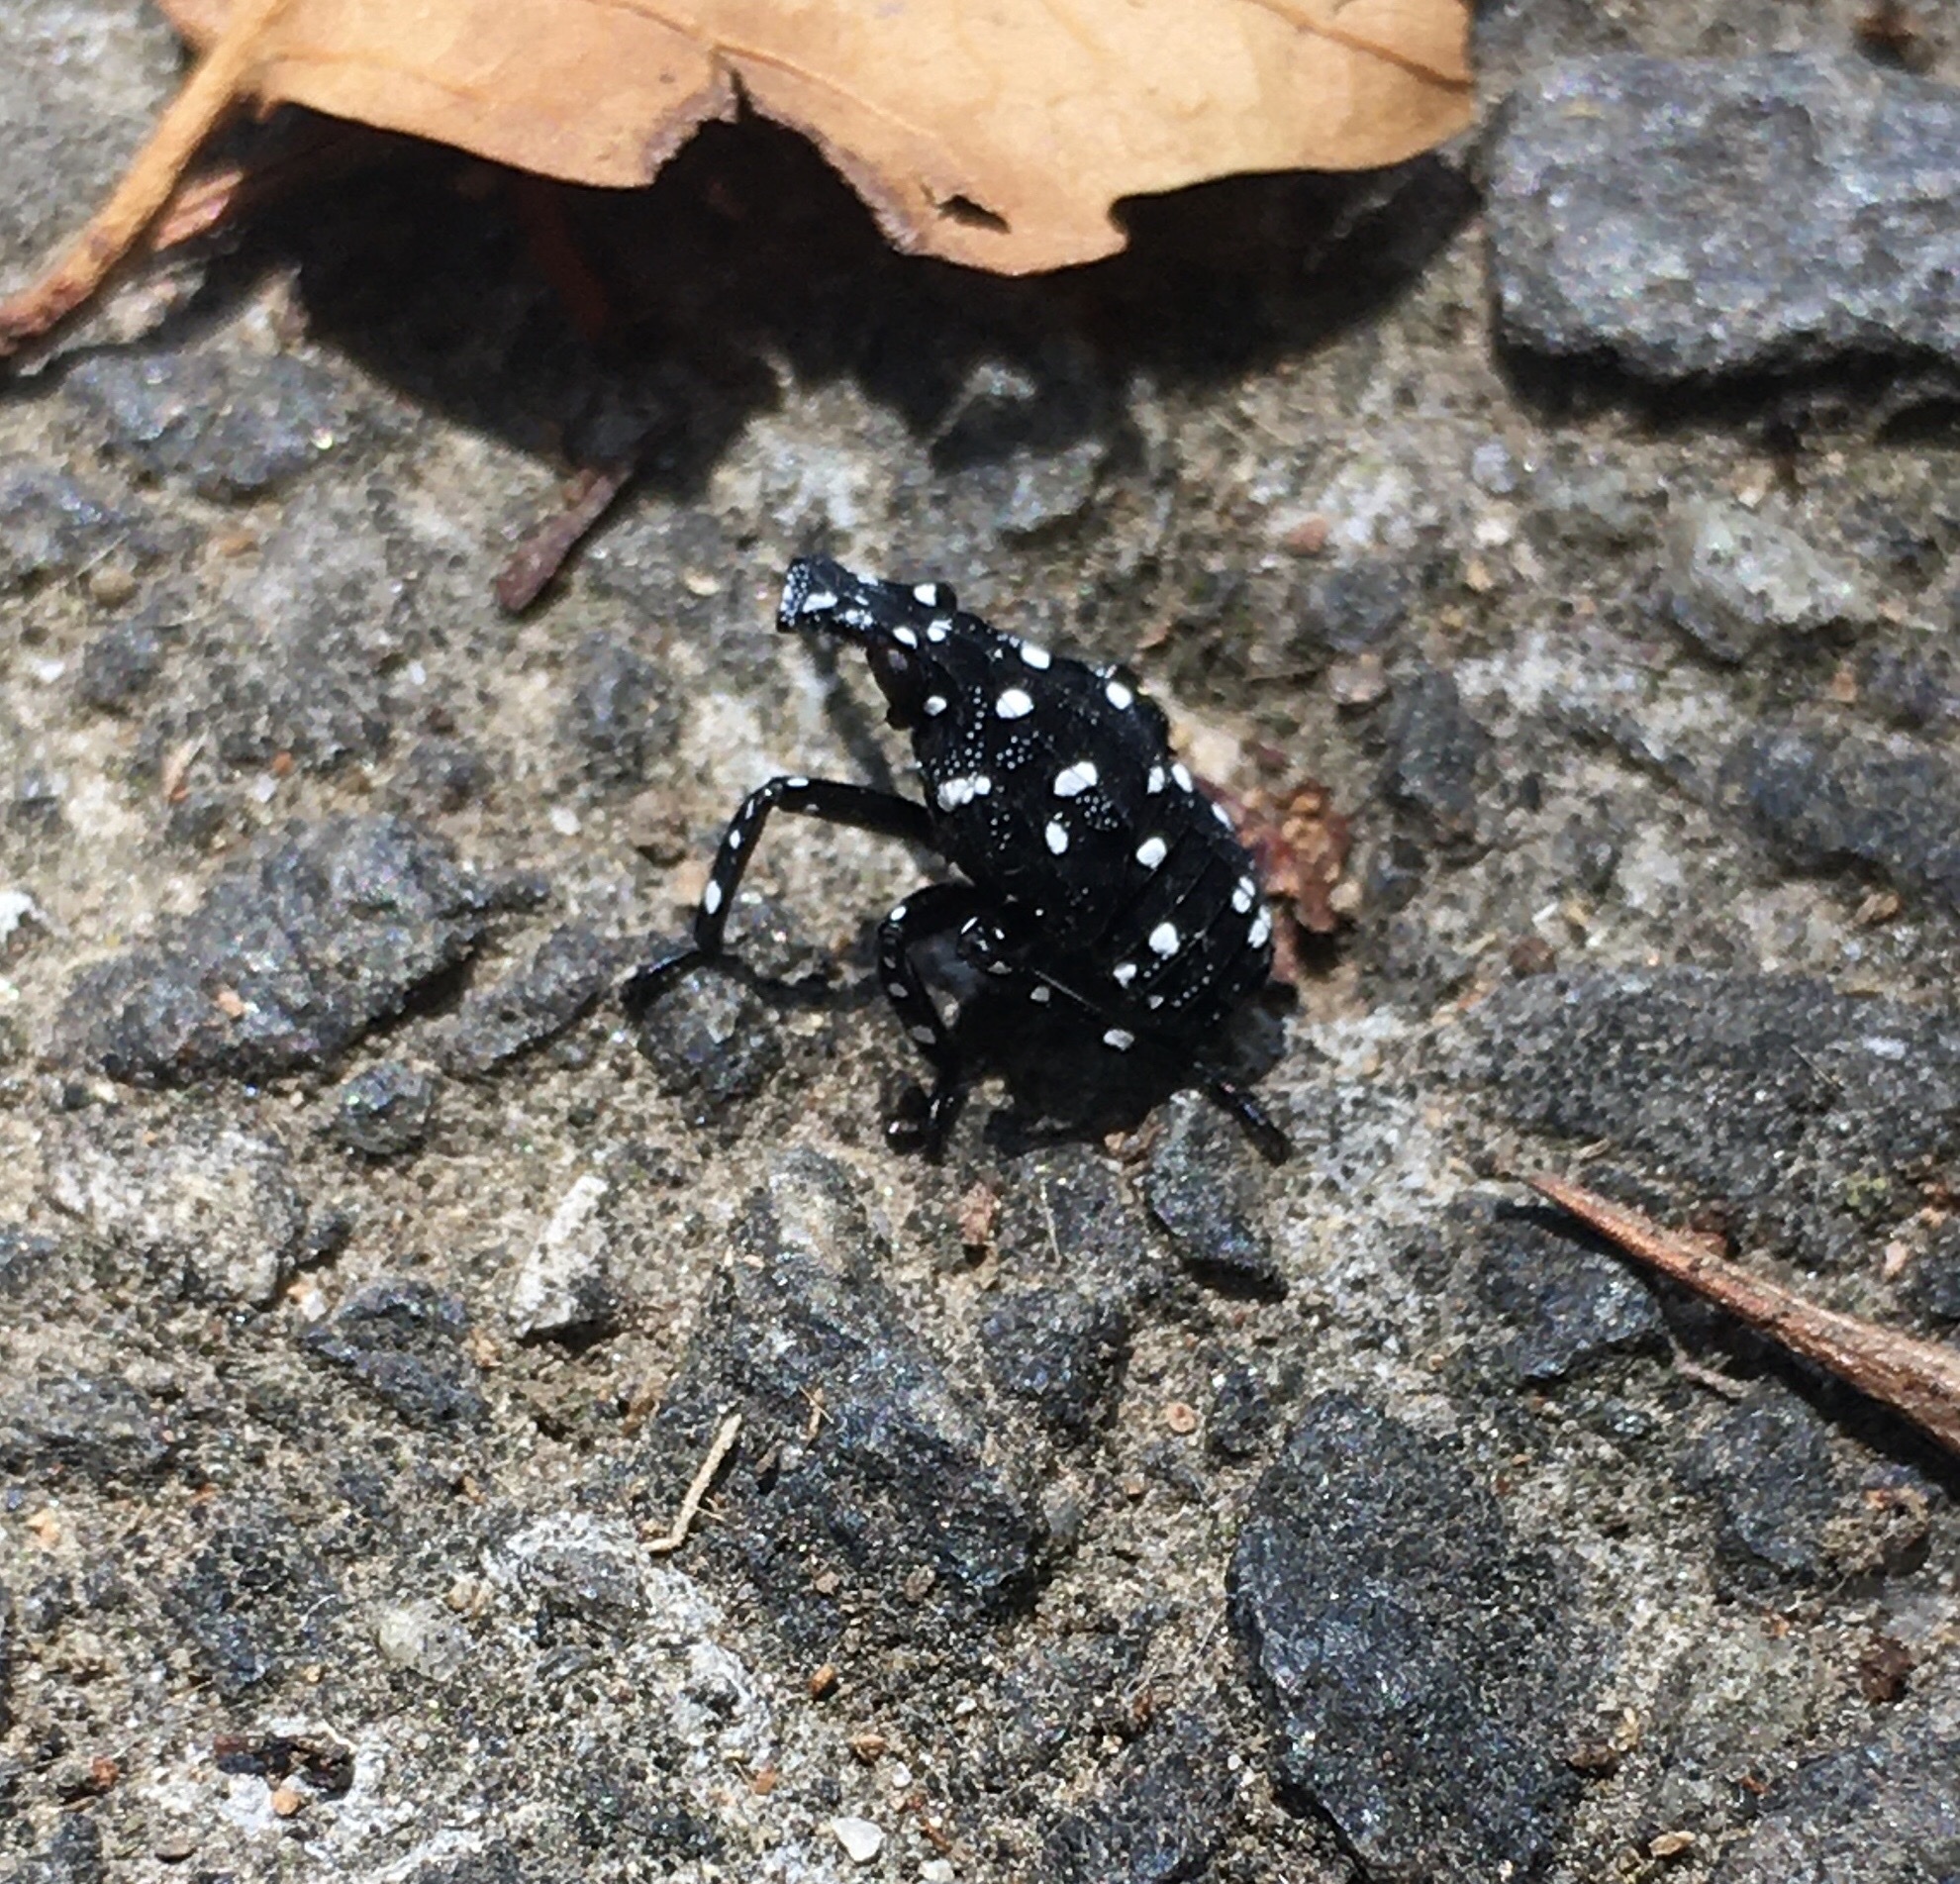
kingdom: Animalia
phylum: Arthropoda
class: Insecta
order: Hemiptera
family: Fulgoridae
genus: Lycorma
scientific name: Lycorma delicatula
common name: Spotted lanternfly
